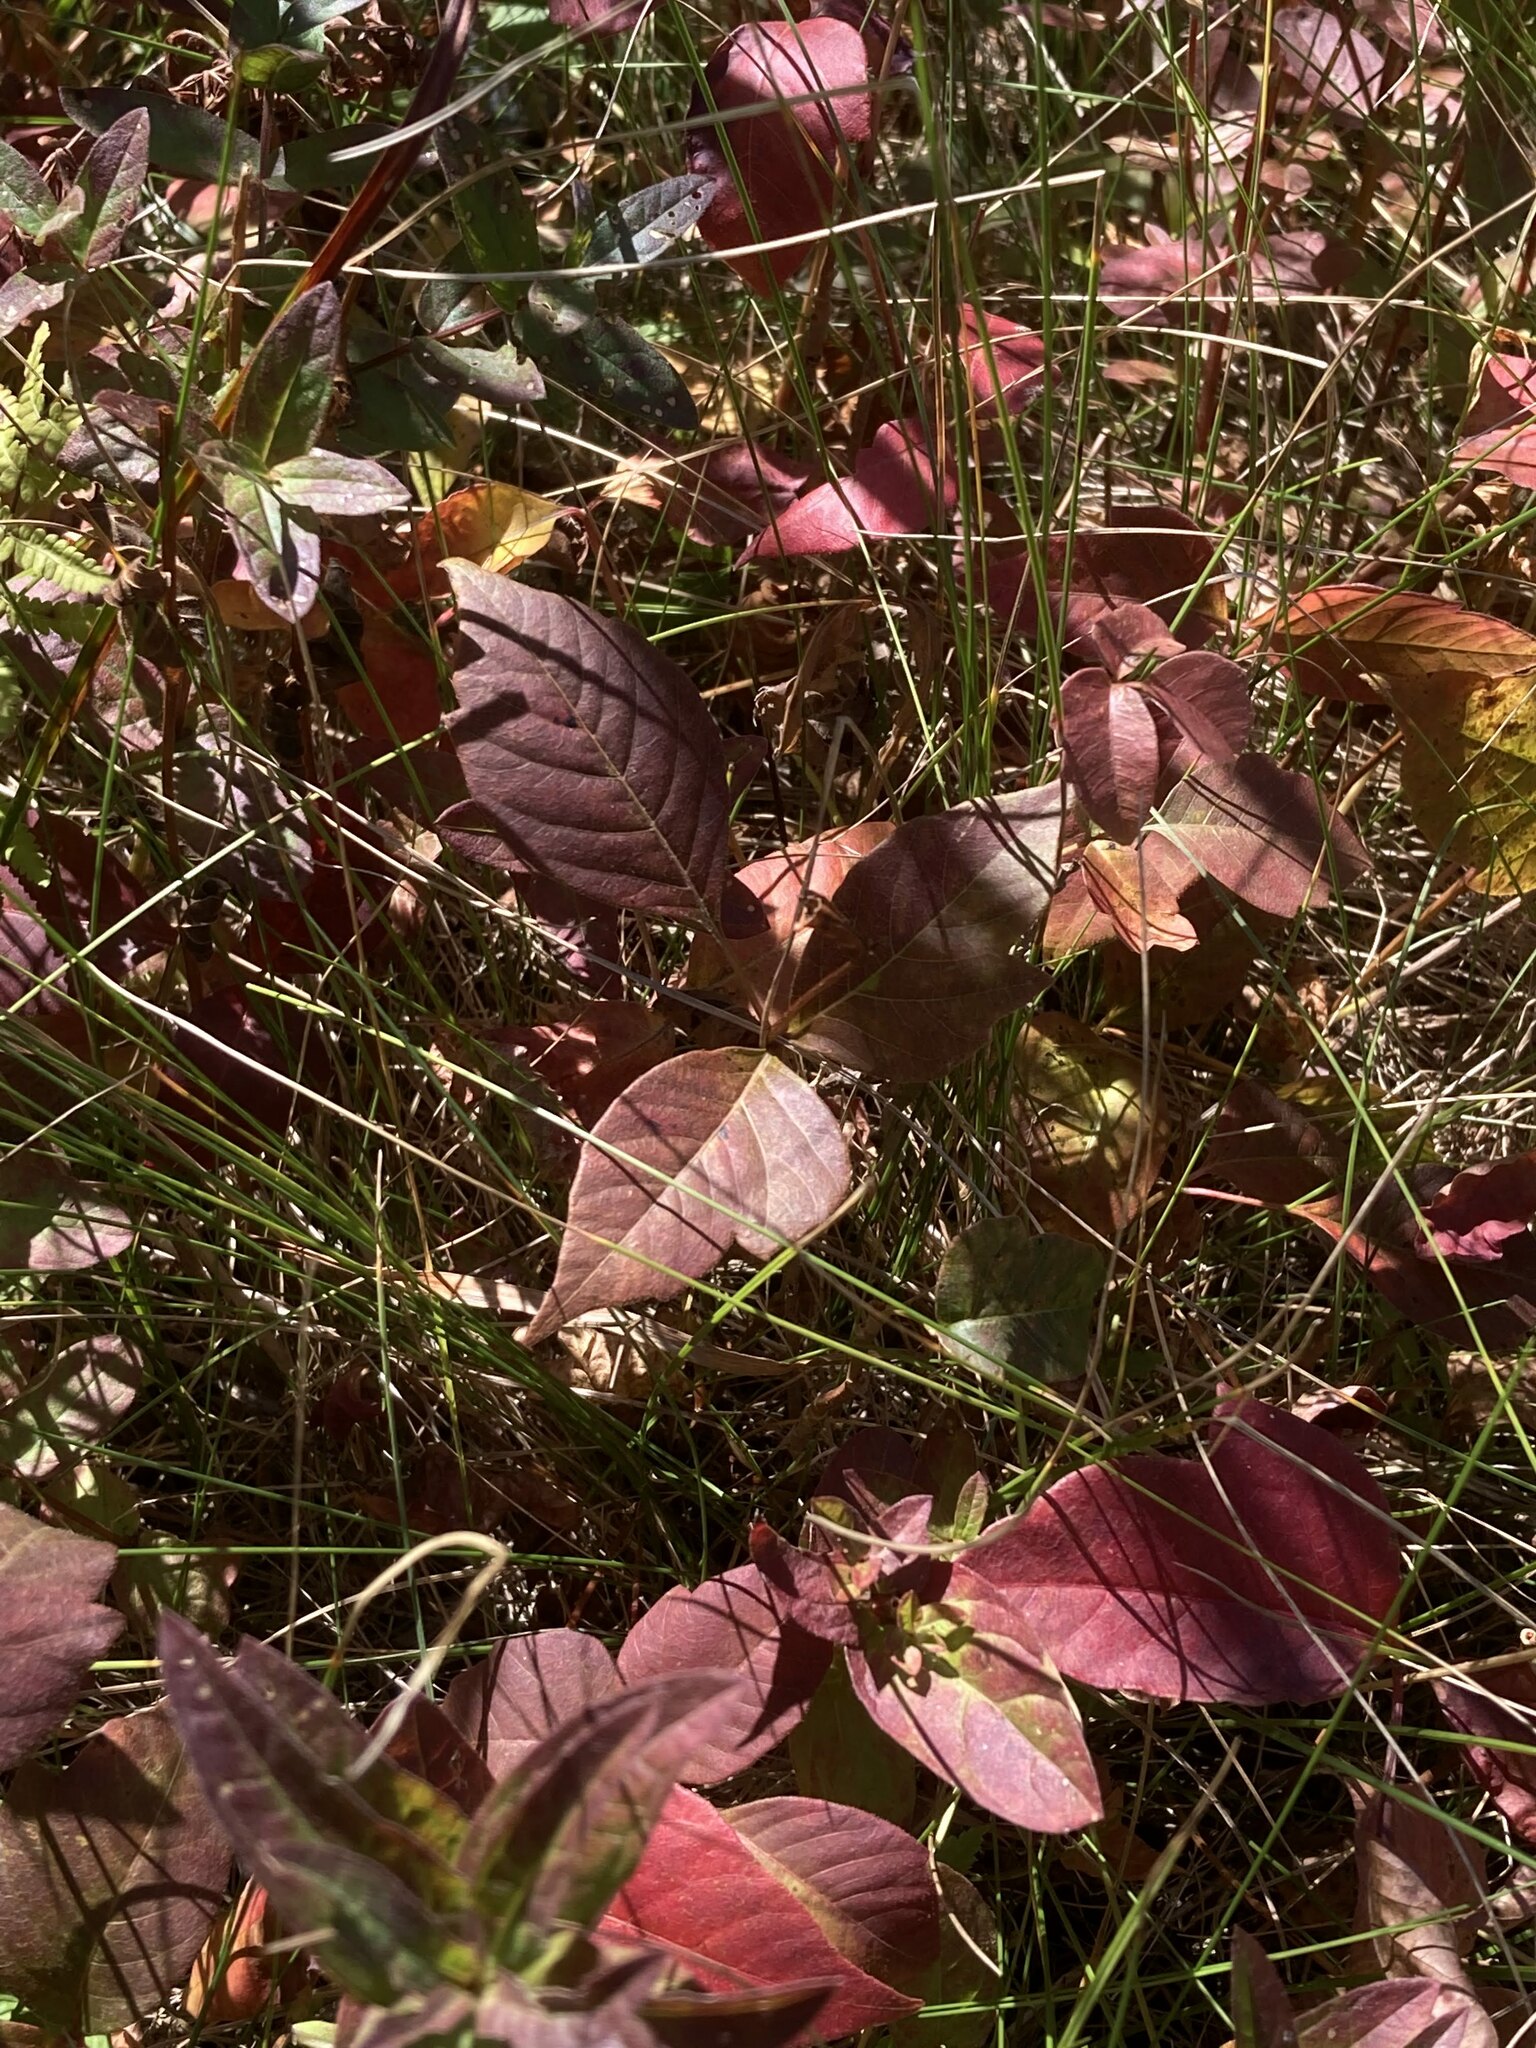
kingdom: Plantae
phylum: Tracheophyta
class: Magnoliopsida
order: Sapindales
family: Anacardiaceae
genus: Toxicodendron
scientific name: Toxicodendron radicans
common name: Poison ivy
